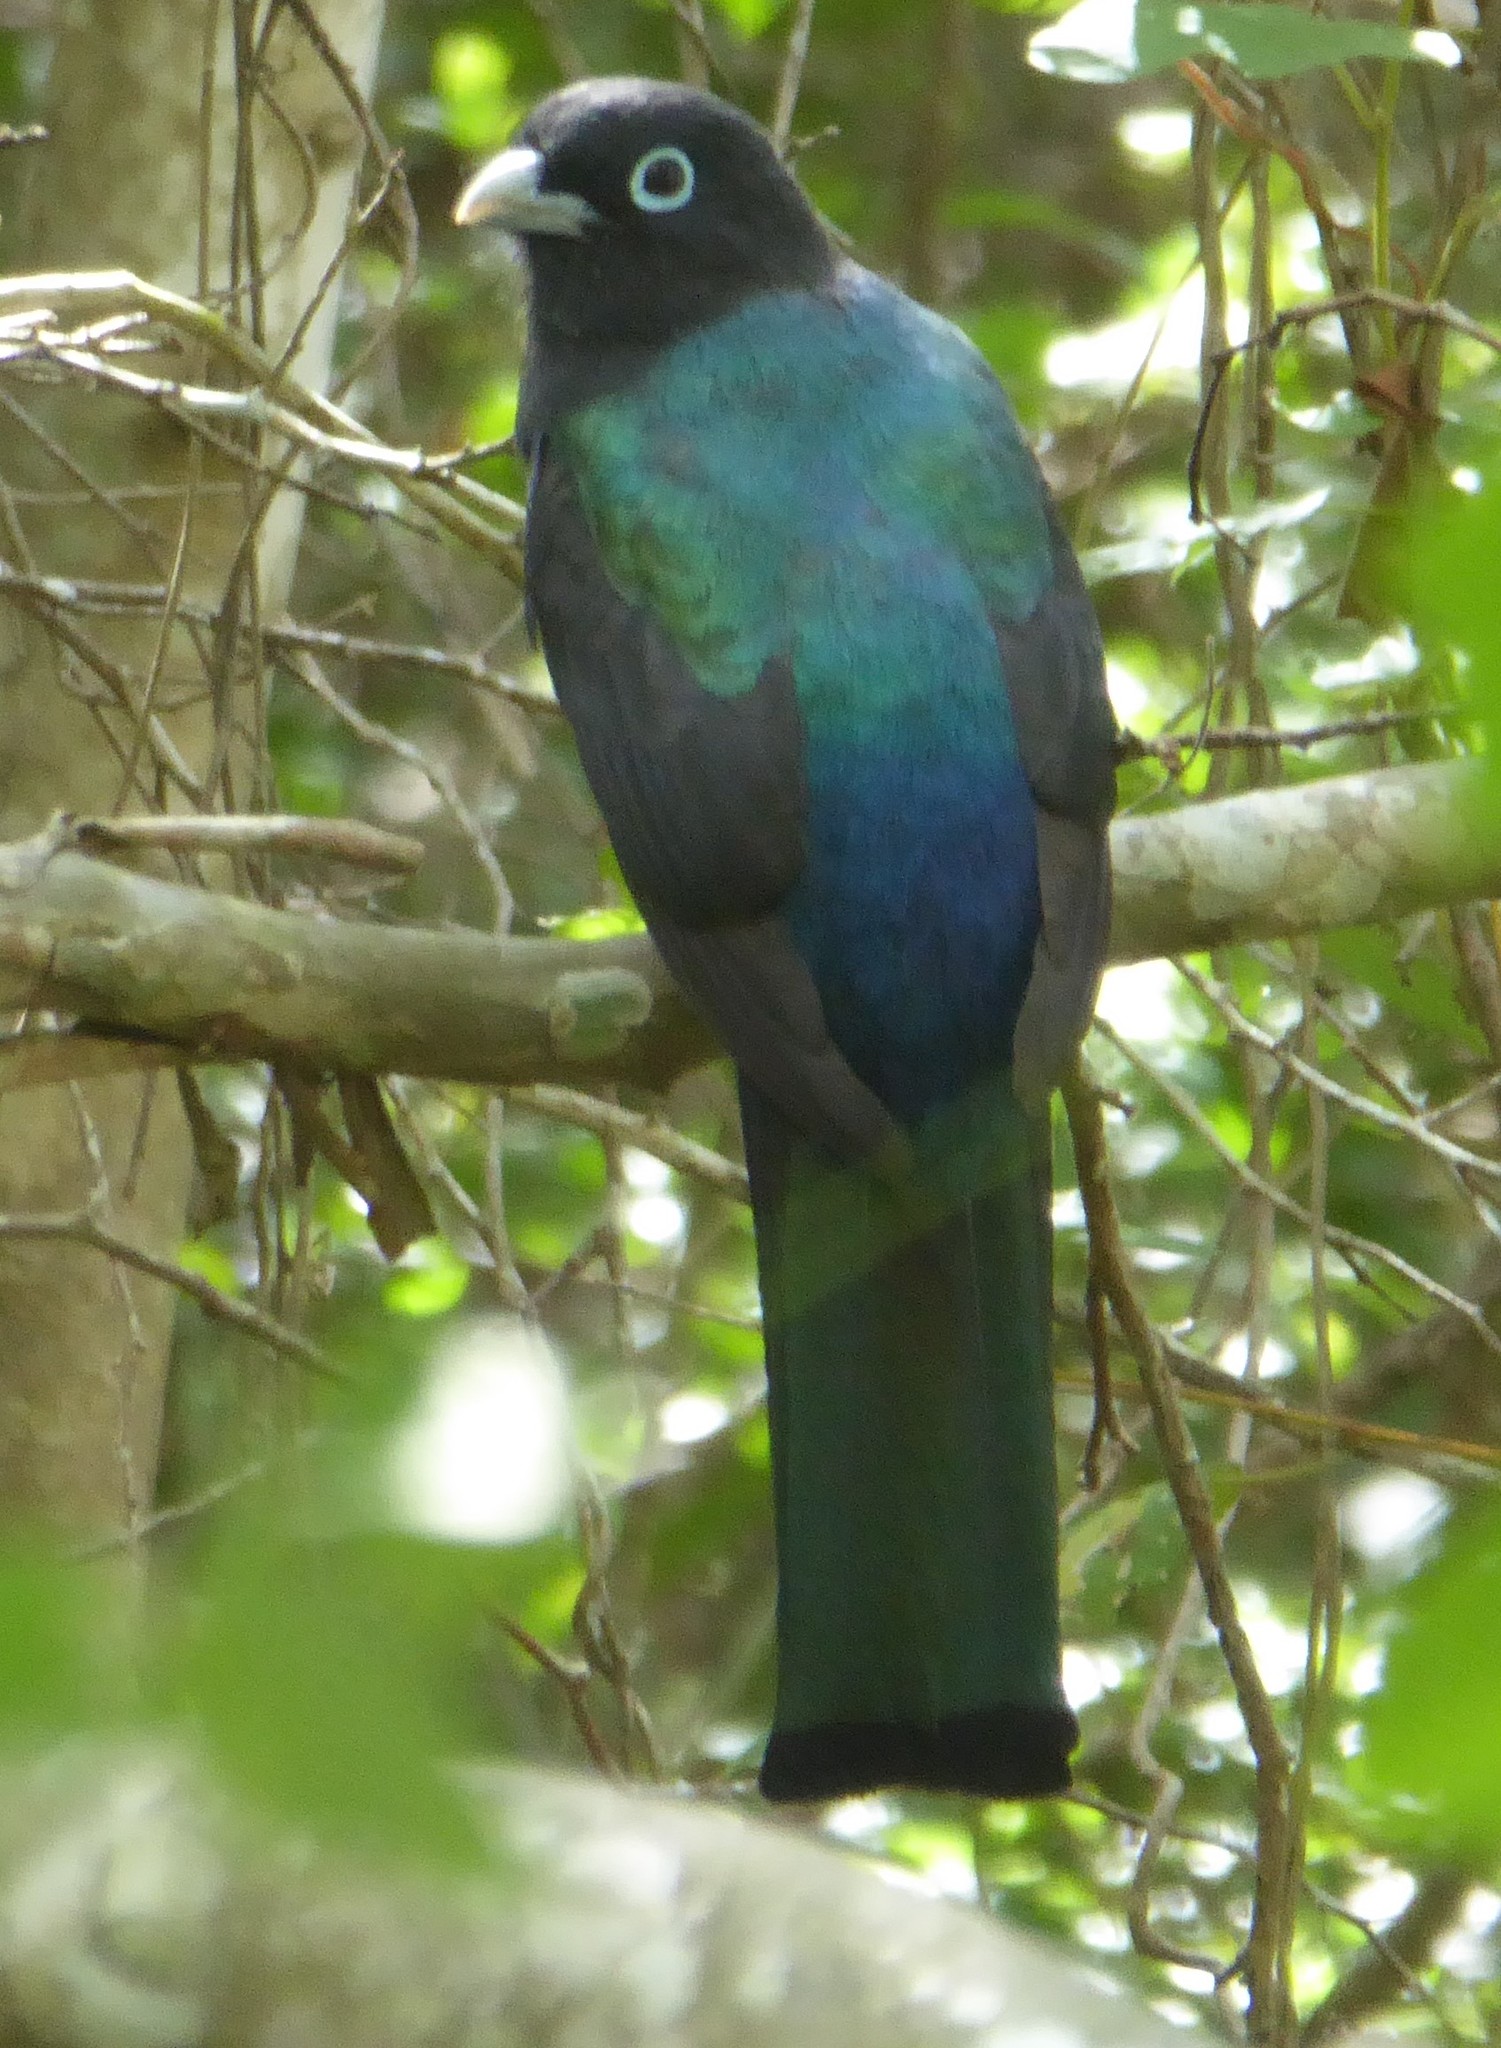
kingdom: Animalia
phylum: Chordata
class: Aves
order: Trogoniformes
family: Trogonidae
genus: Trogon
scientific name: Trogon melanocephalus
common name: Black-headed trogon
